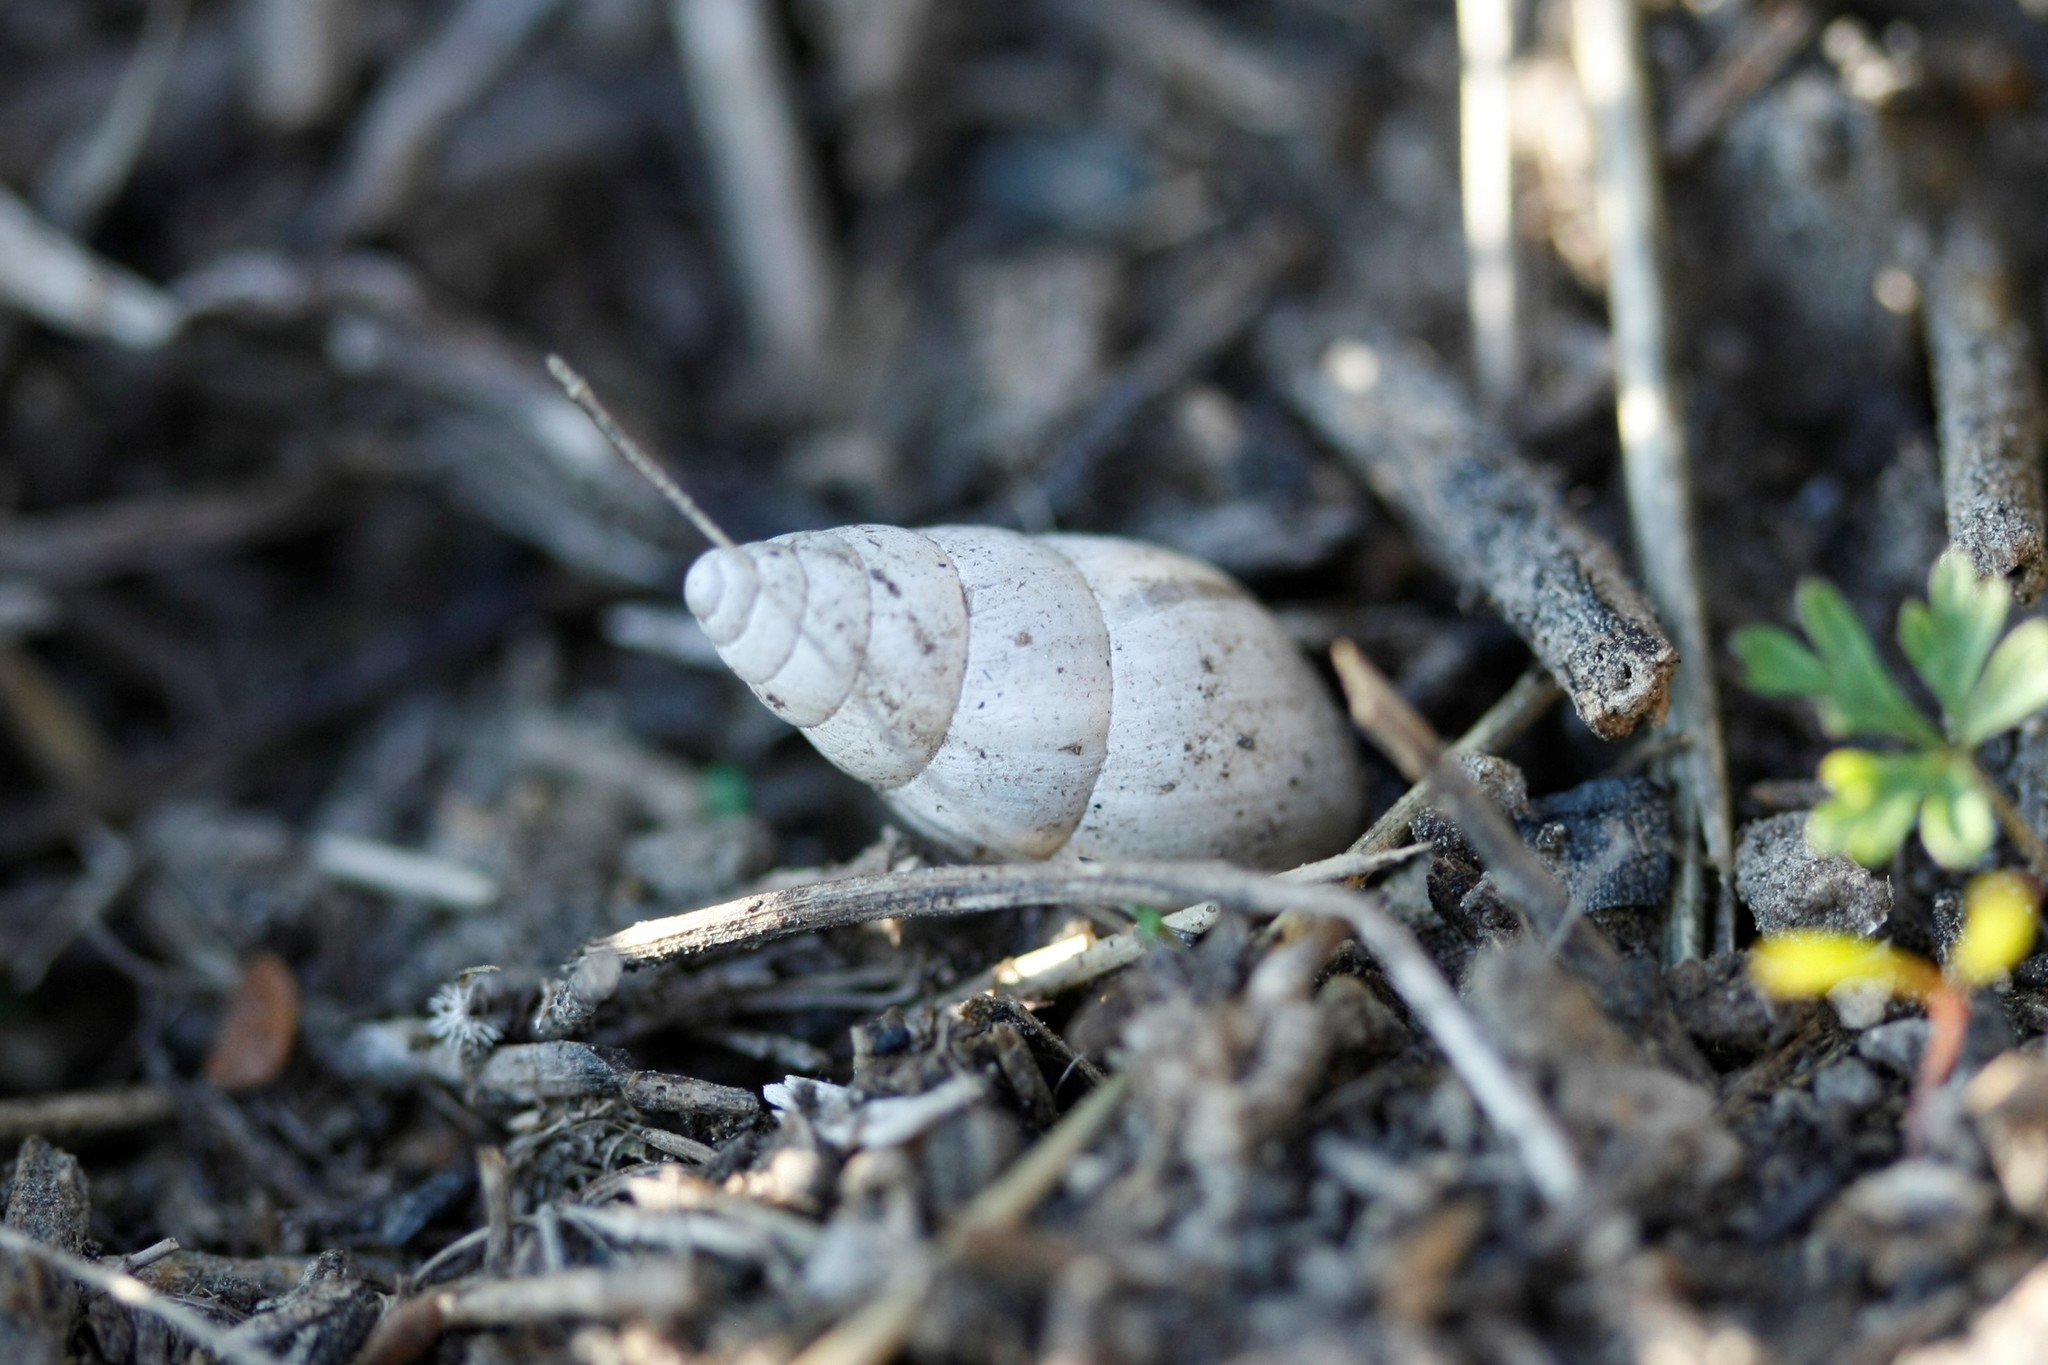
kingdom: Animalia
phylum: Mollusca
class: Gastropoda
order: Stylommatophora
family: Enidae
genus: Zebrina
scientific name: Zebrina detrita
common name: Large bulin
